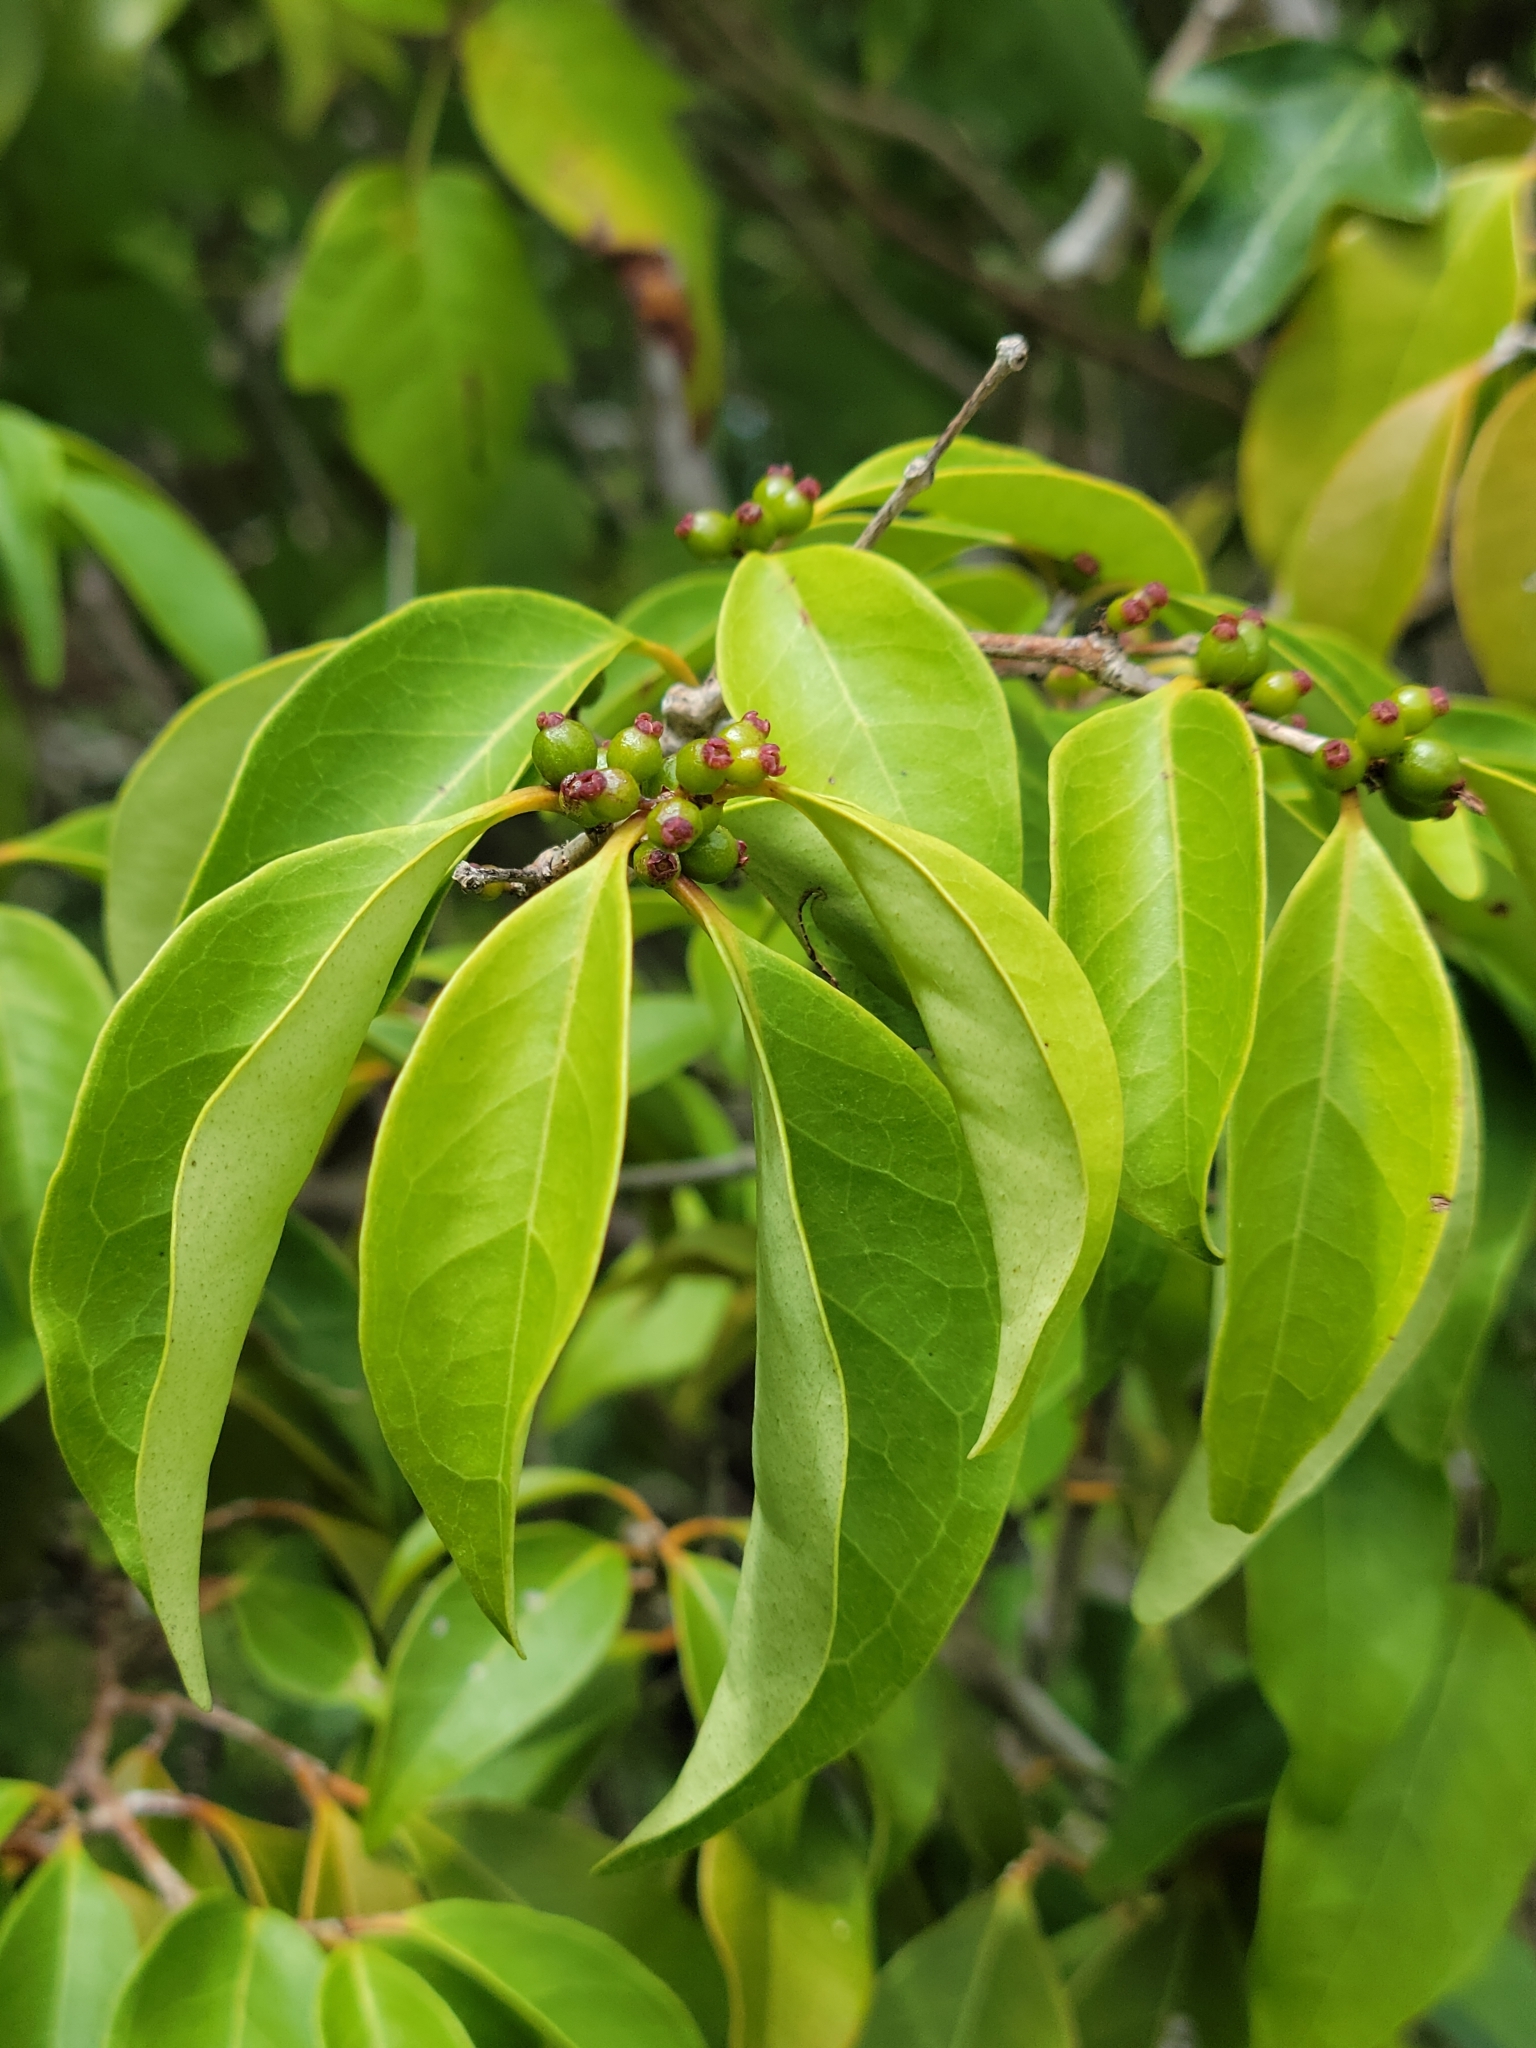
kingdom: Plantae
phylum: Tracheophyta
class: Magnoliopsida
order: Myrtales
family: Myrtaceae
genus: Eugenia
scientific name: Eugenia axillaris
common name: Choaky berry
